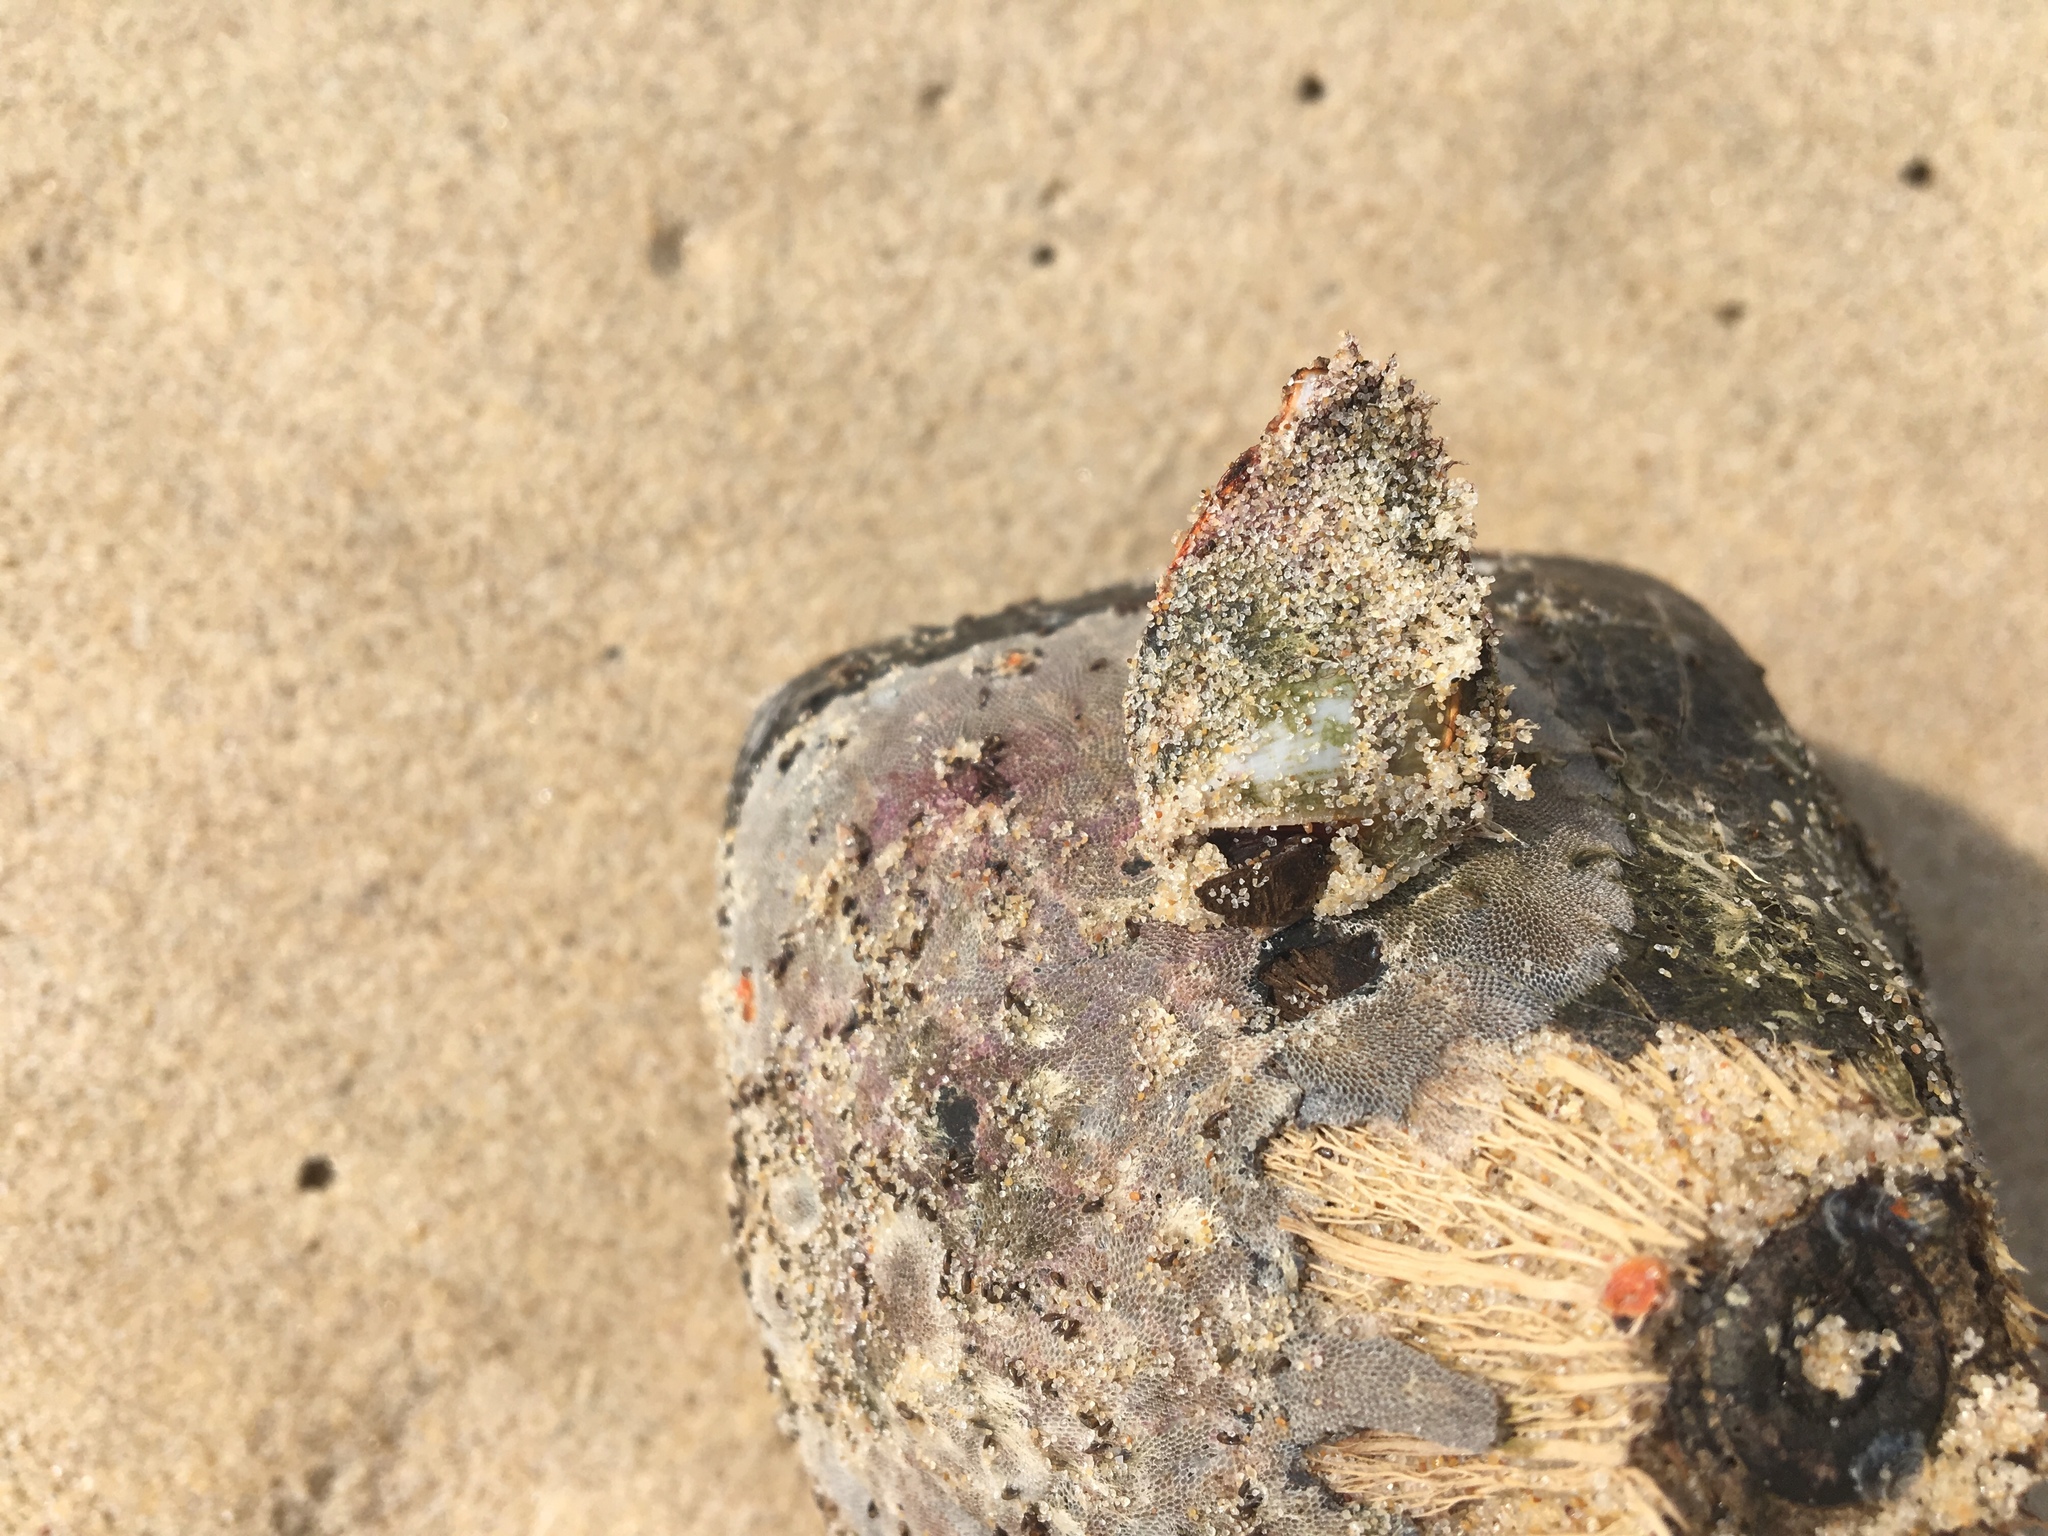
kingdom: Animalia
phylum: Arthropoda
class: Maxillopoda
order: Pedunculata
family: Lepadidae
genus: Lepas
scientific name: Lepas anserifera
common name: Goose barnacle
